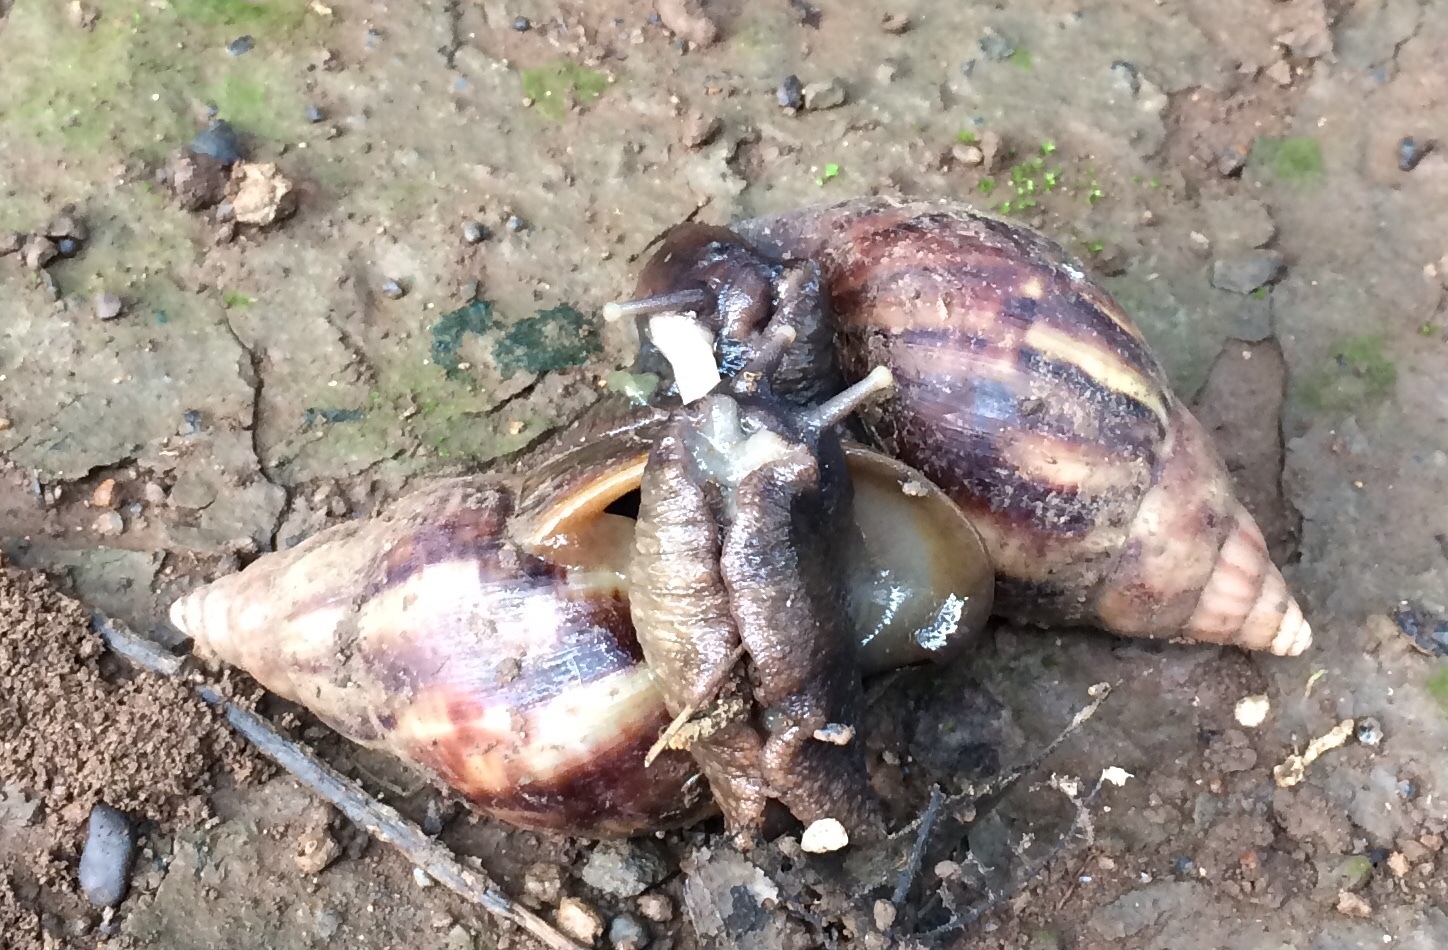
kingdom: Animalia
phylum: Mollusca
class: Gastropoda
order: Stylommatophora
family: Achatinidae
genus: Lissachatina
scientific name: Lissachatina fulica
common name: Giant african snail
